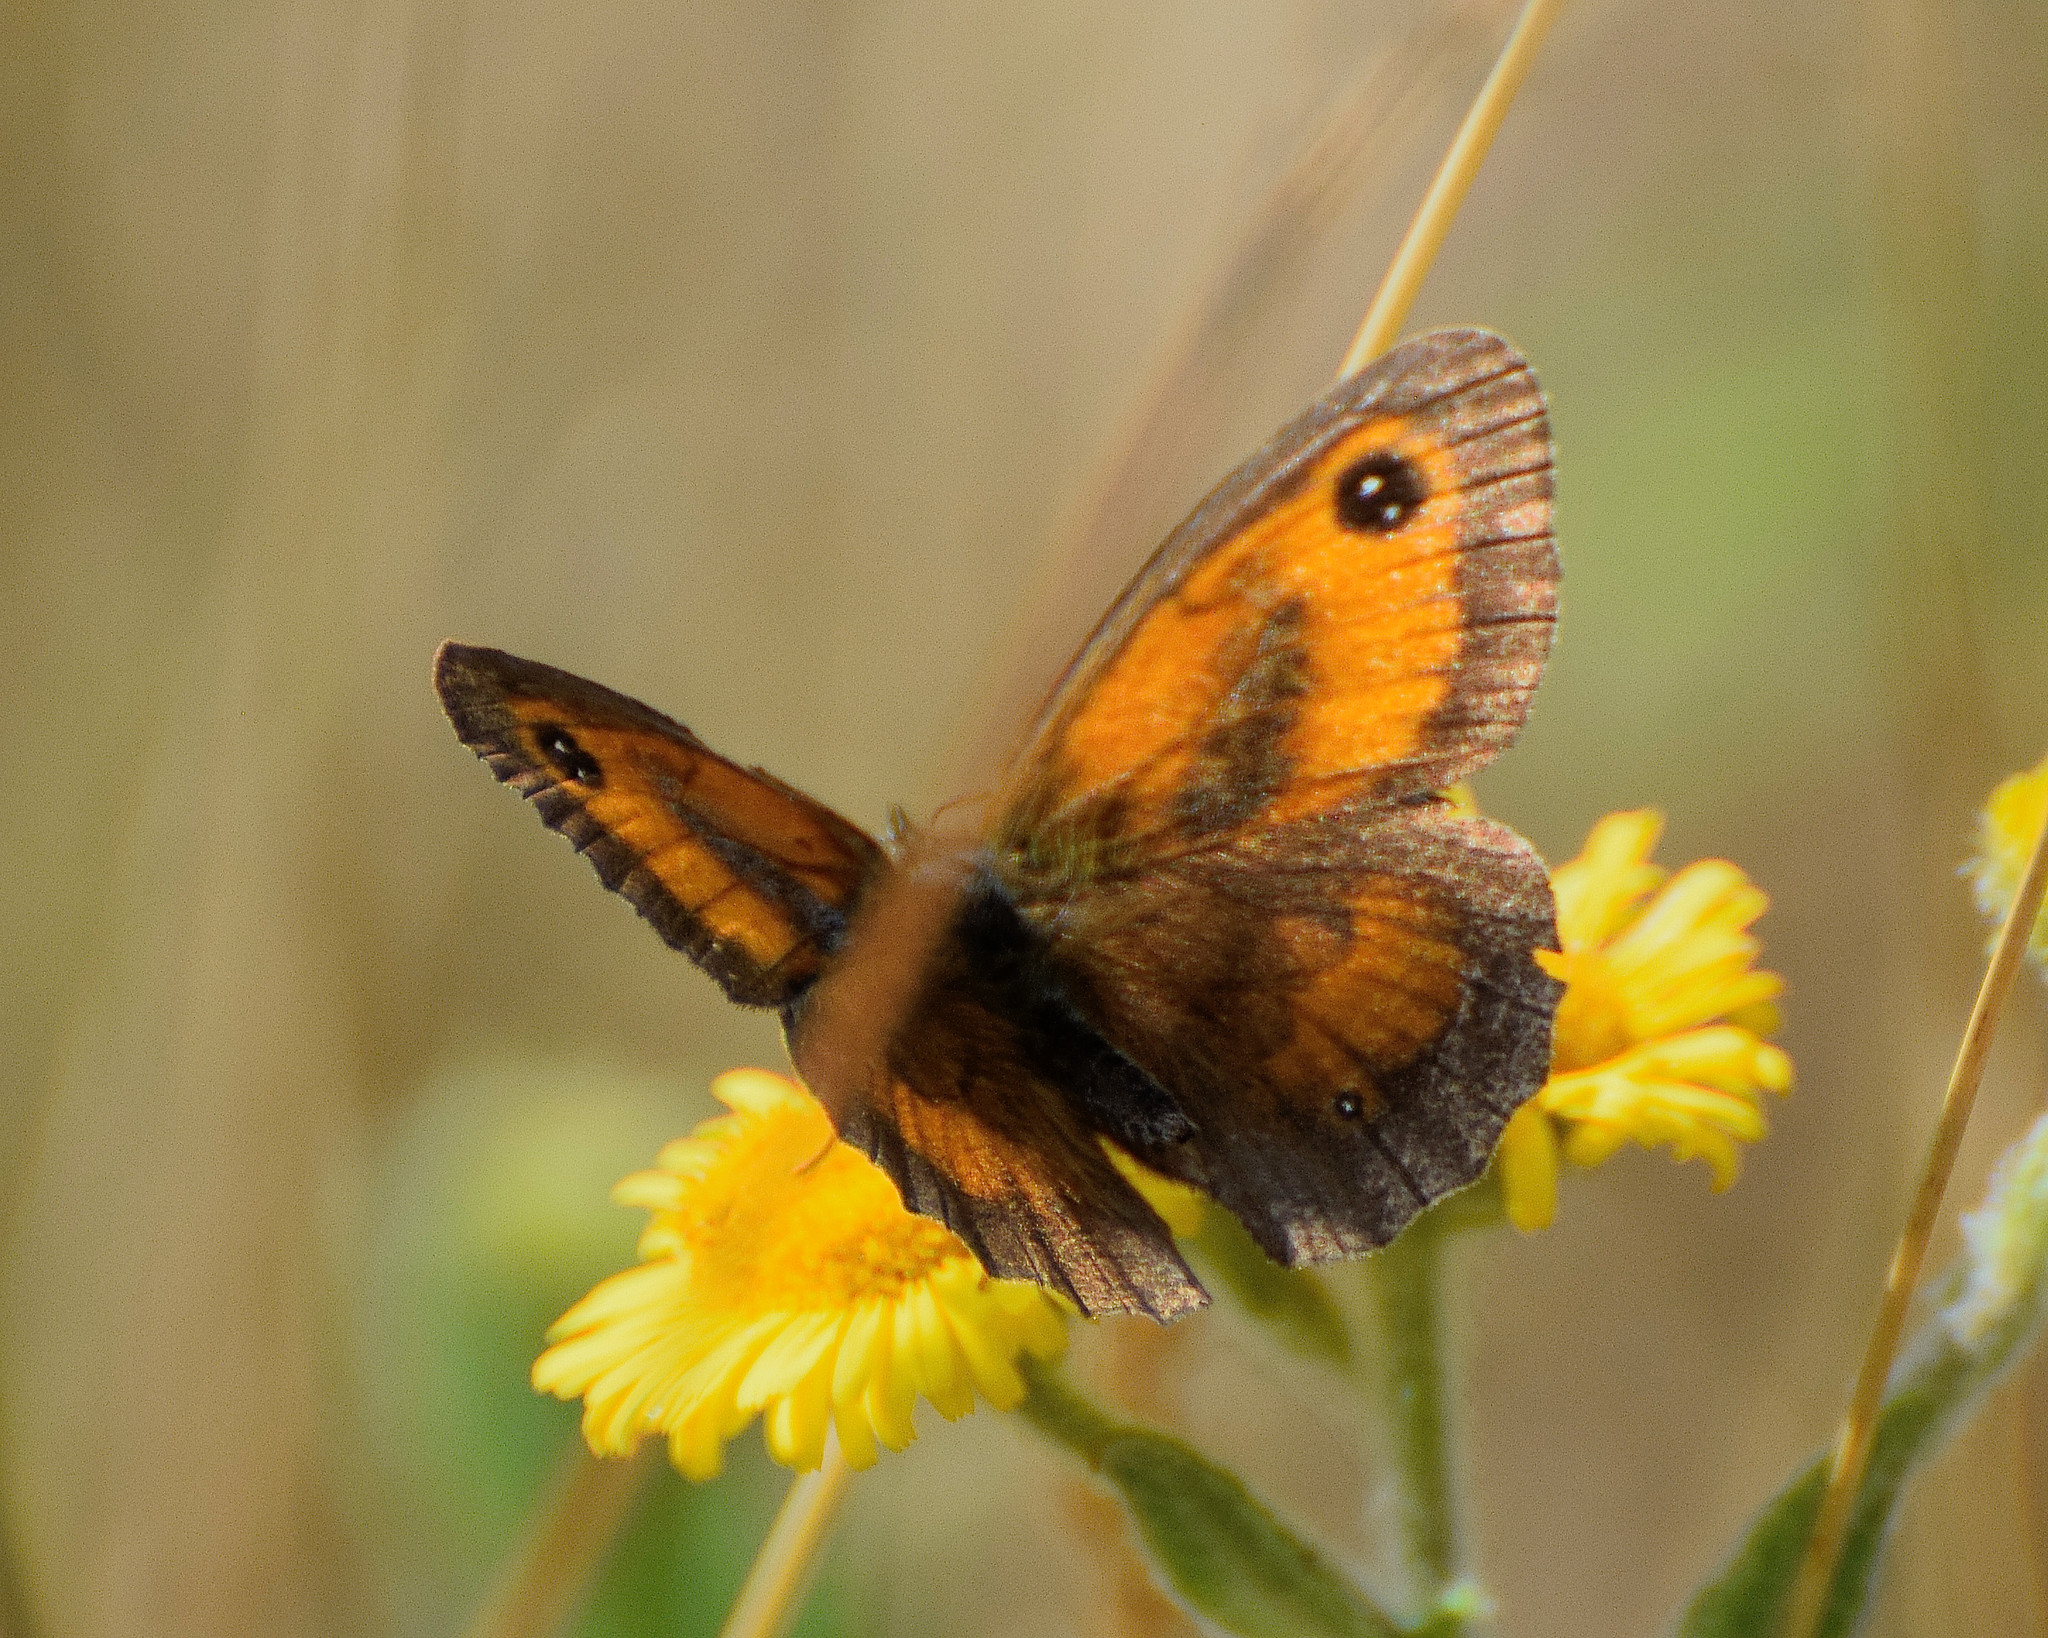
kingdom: Animalia
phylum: Arthropoda
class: Insecta
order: Lepidoptera
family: Nymphalidae
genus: Pyronia
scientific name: Pyronia tithonus
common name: Gatekeeper
